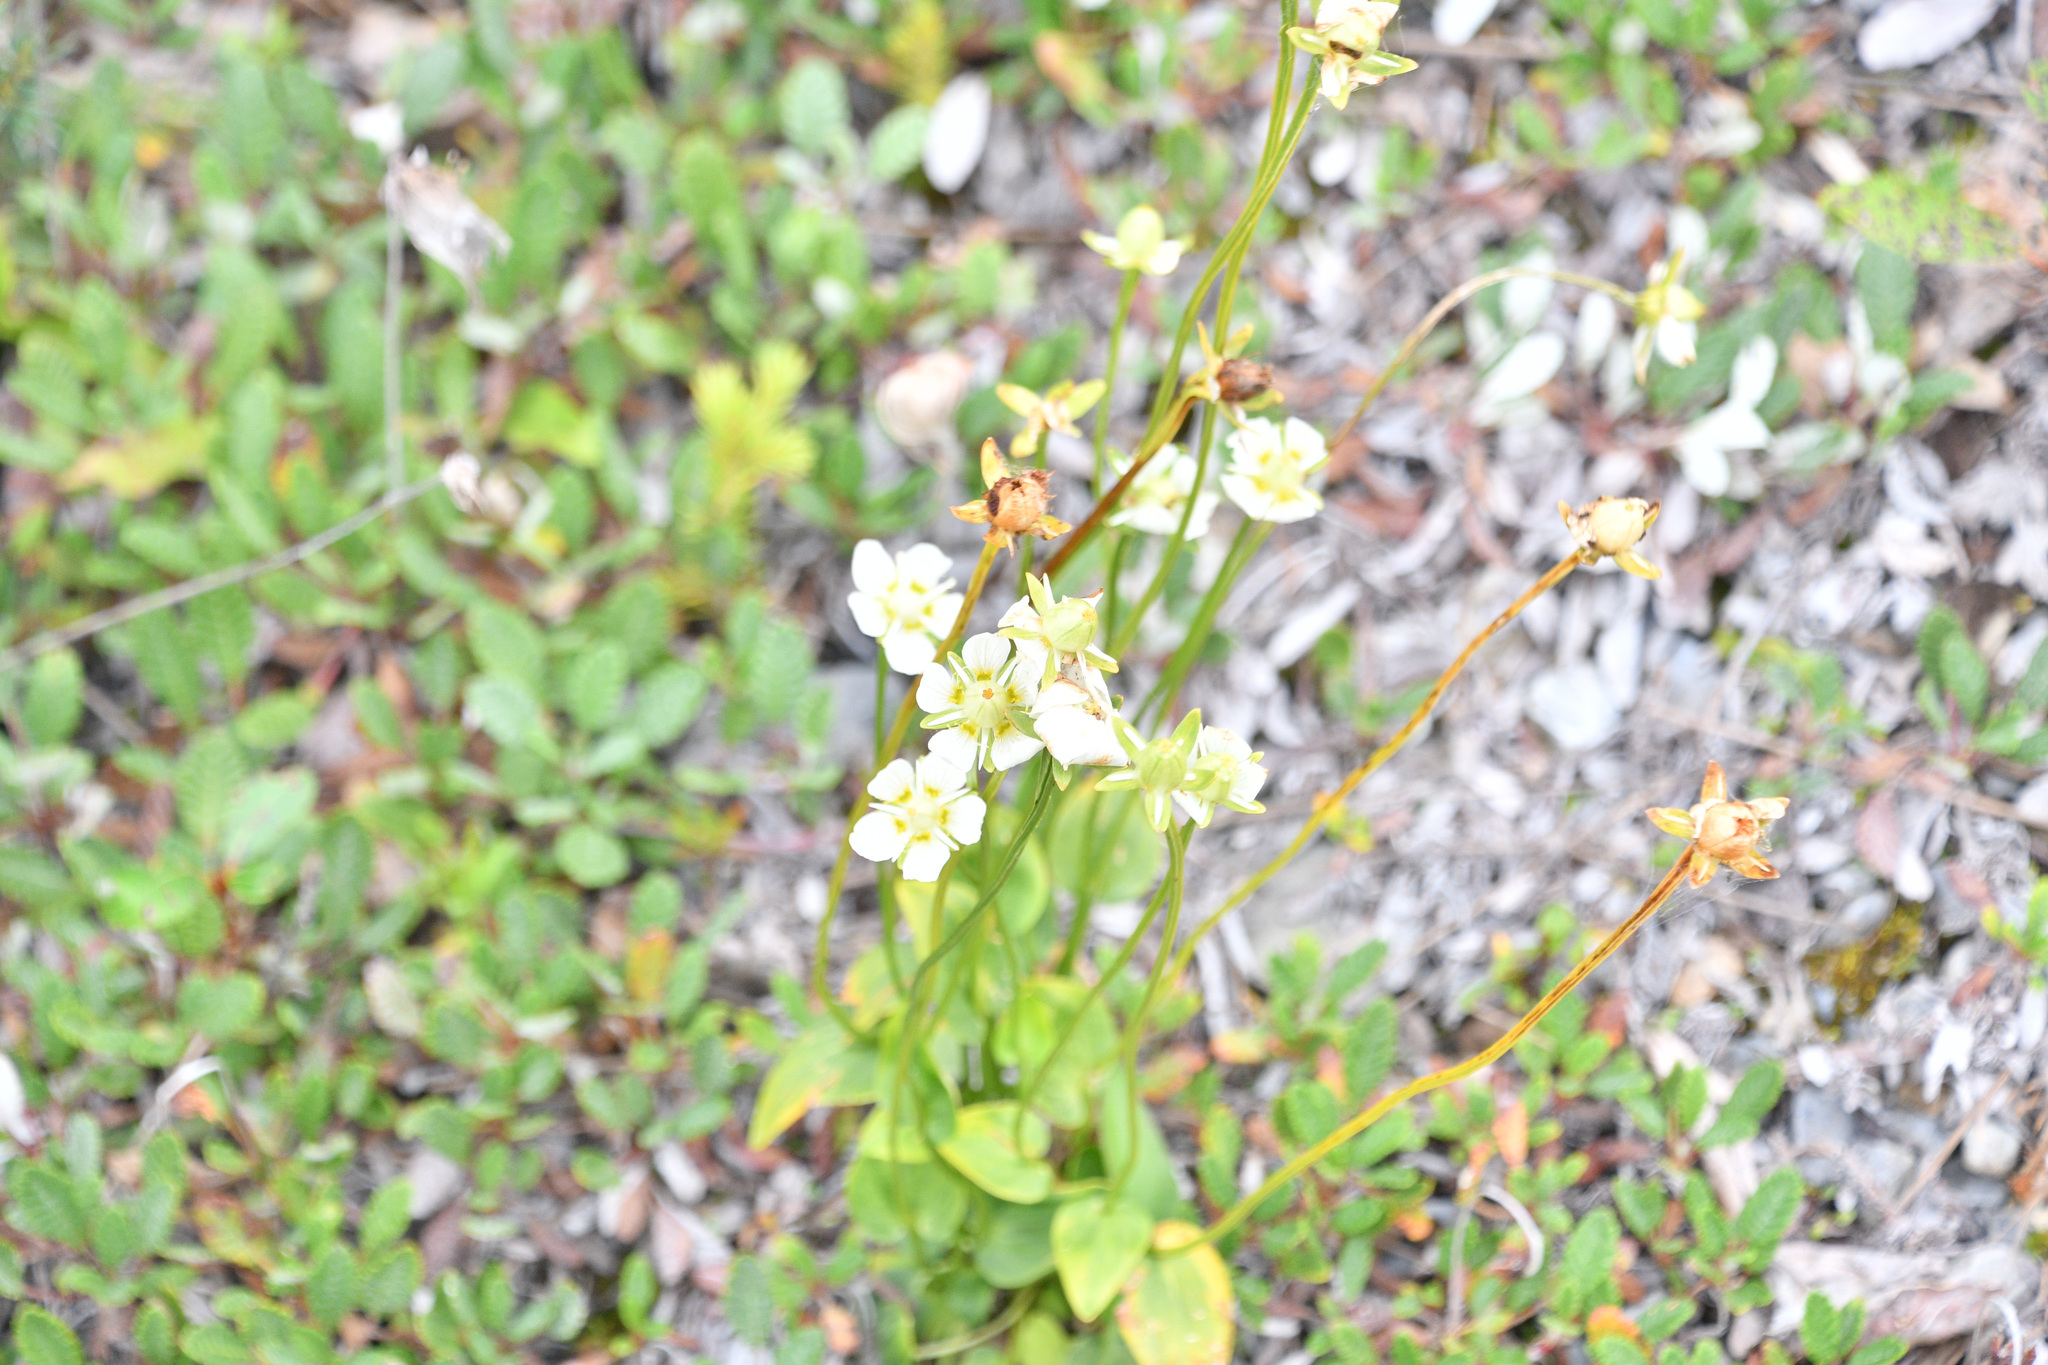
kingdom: Plantae
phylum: Tracheophyta
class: Magnoliopsida
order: Celastrales
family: Parnassiaceae
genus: Parnassia
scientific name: Parnassia palustris
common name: Grass-of-parnassus
